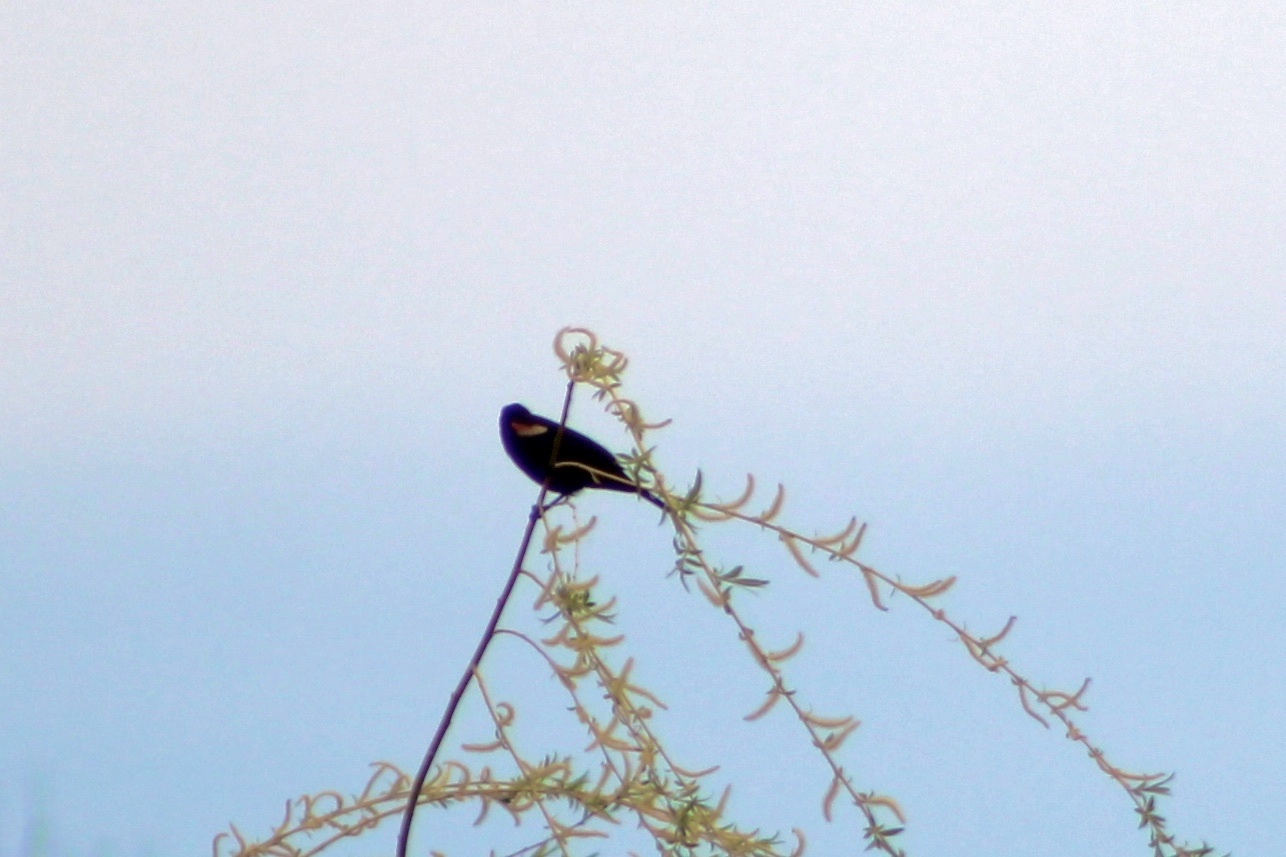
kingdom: Animalia
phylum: Chordata
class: Aves
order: Passeriformes
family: Icteridae
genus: Agelaius
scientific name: Agelaius phoeniceus
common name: Red-winged blackbird
